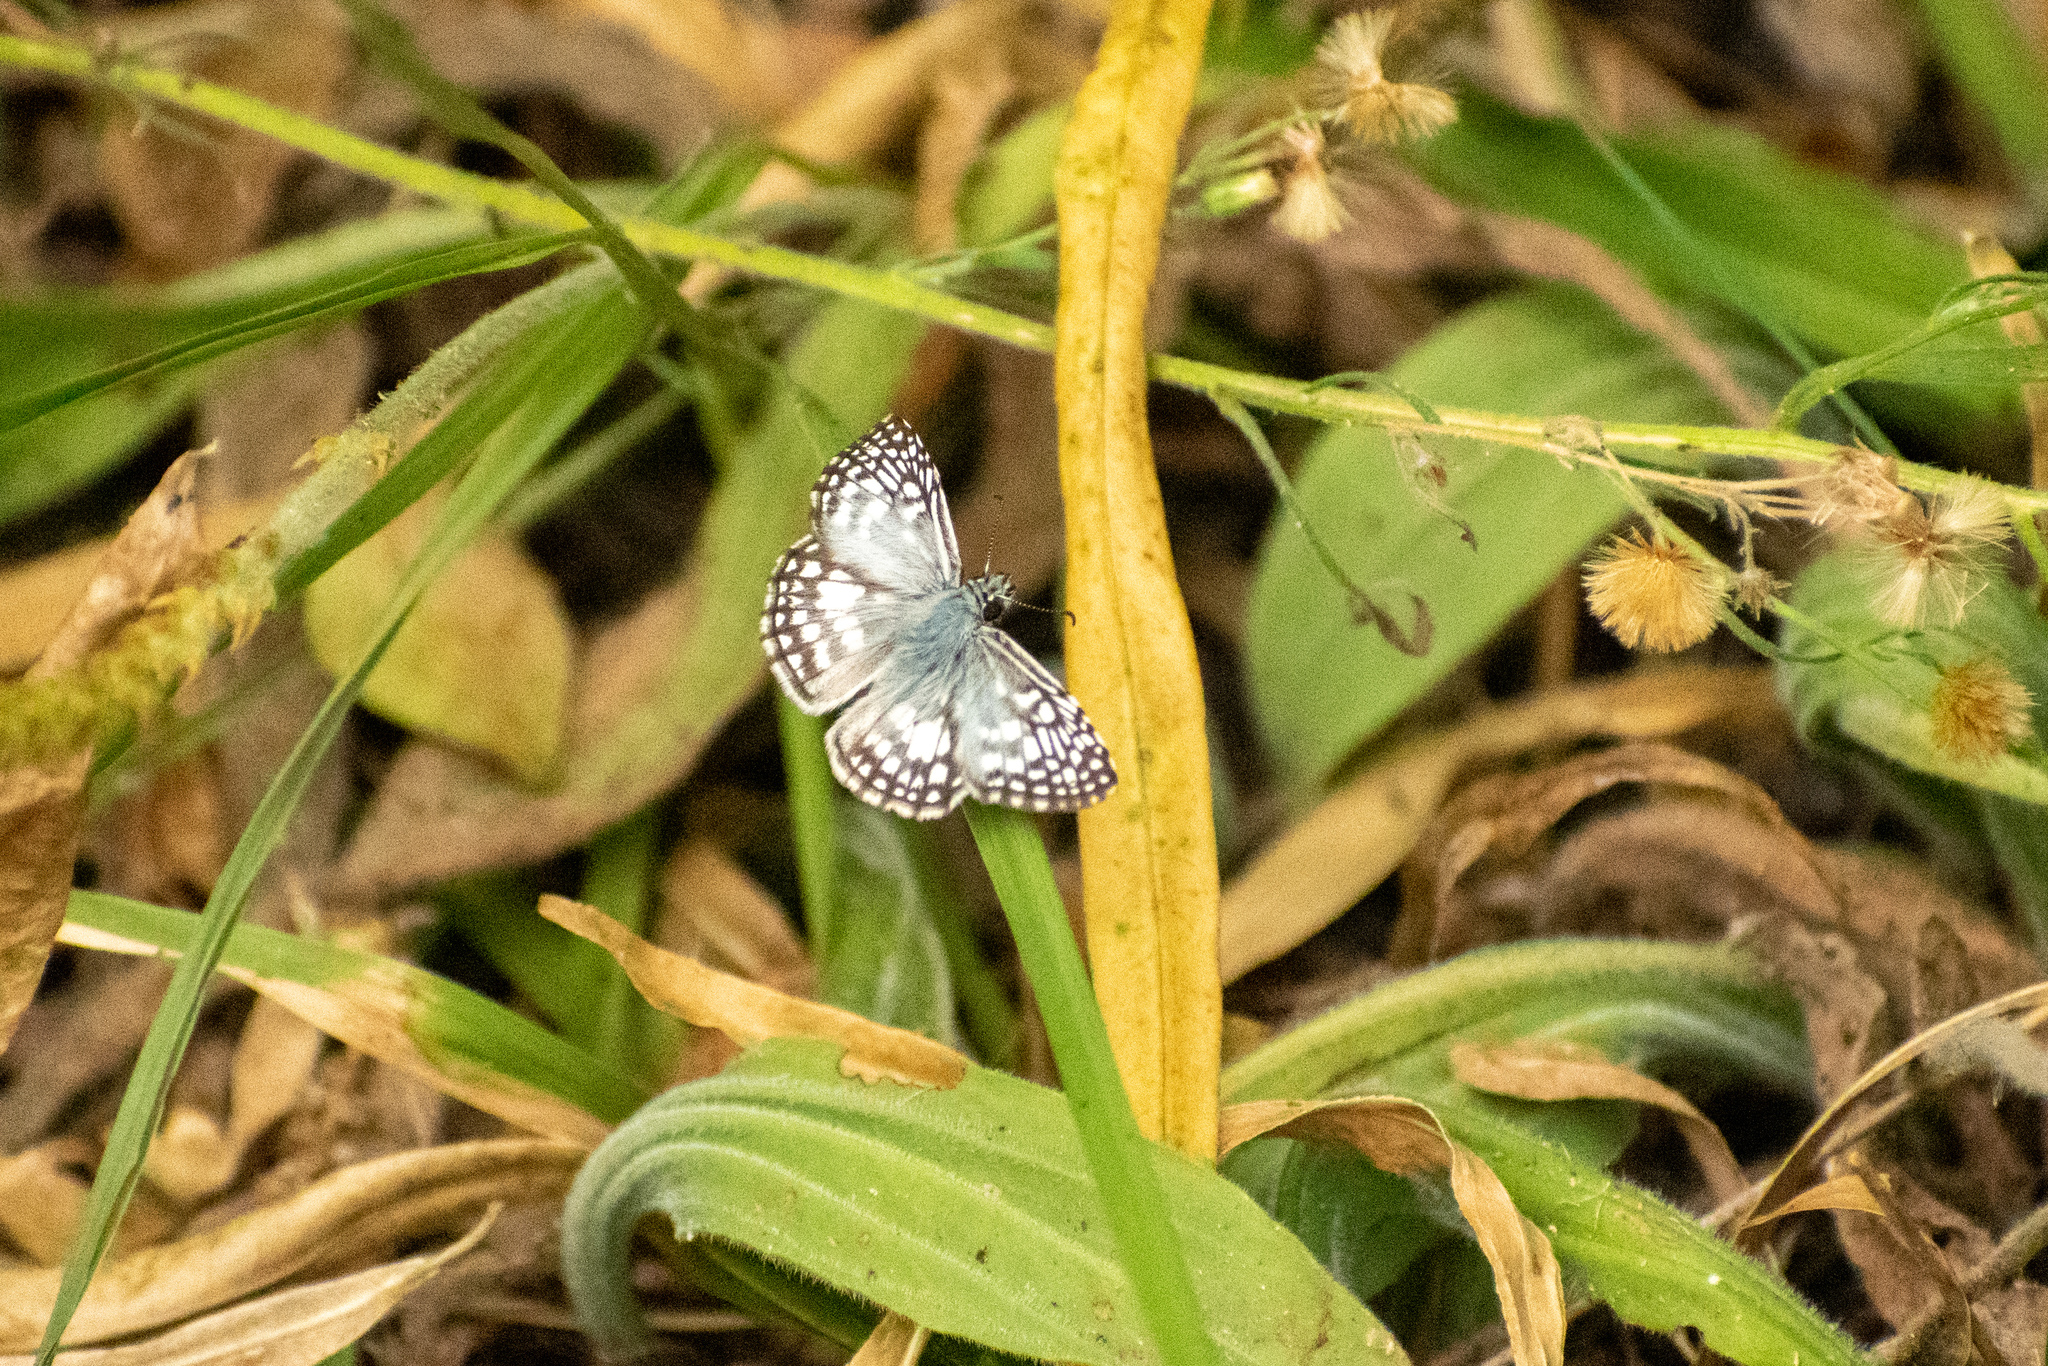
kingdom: Animalia
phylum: Arthropoda
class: Insecta
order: Lepidoptera
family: Hesperiidae
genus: Pyrgus
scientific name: Pyrgus oileus
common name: Tropical checkered-skipper
